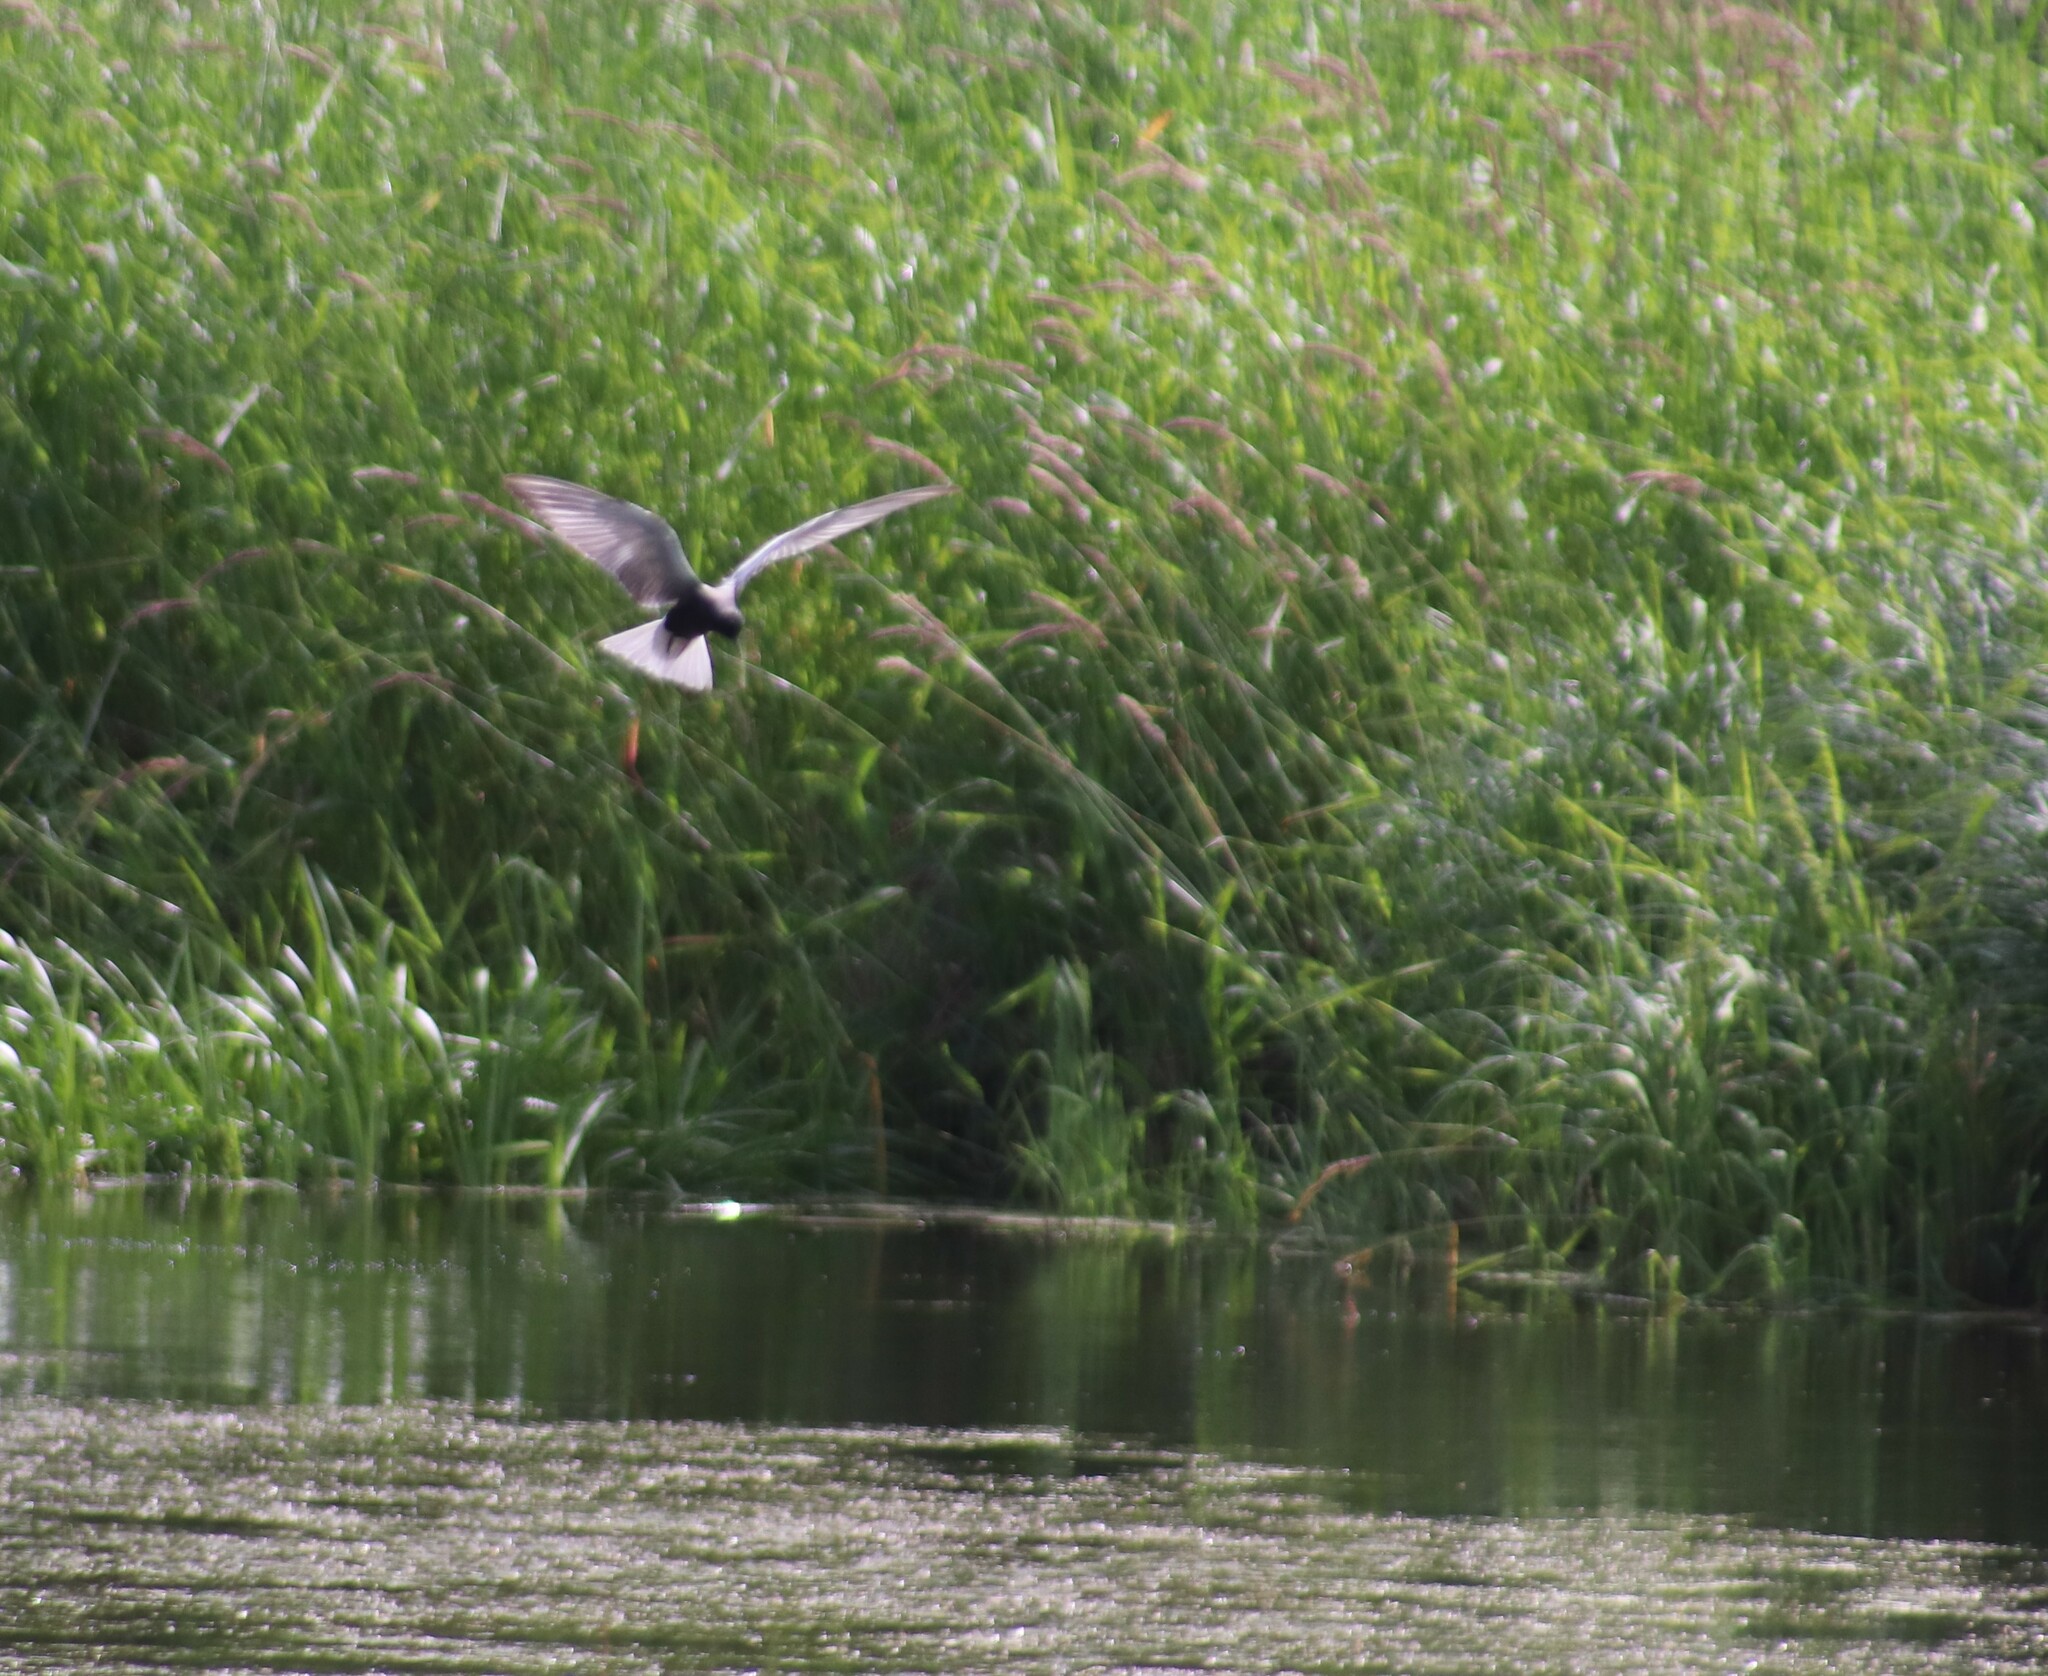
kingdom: Animalia
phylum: Chordata
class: Aves
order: Charadriiformes
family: Laridae
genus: Chlidonias
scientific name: Chlidonias niger
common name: Black tern
